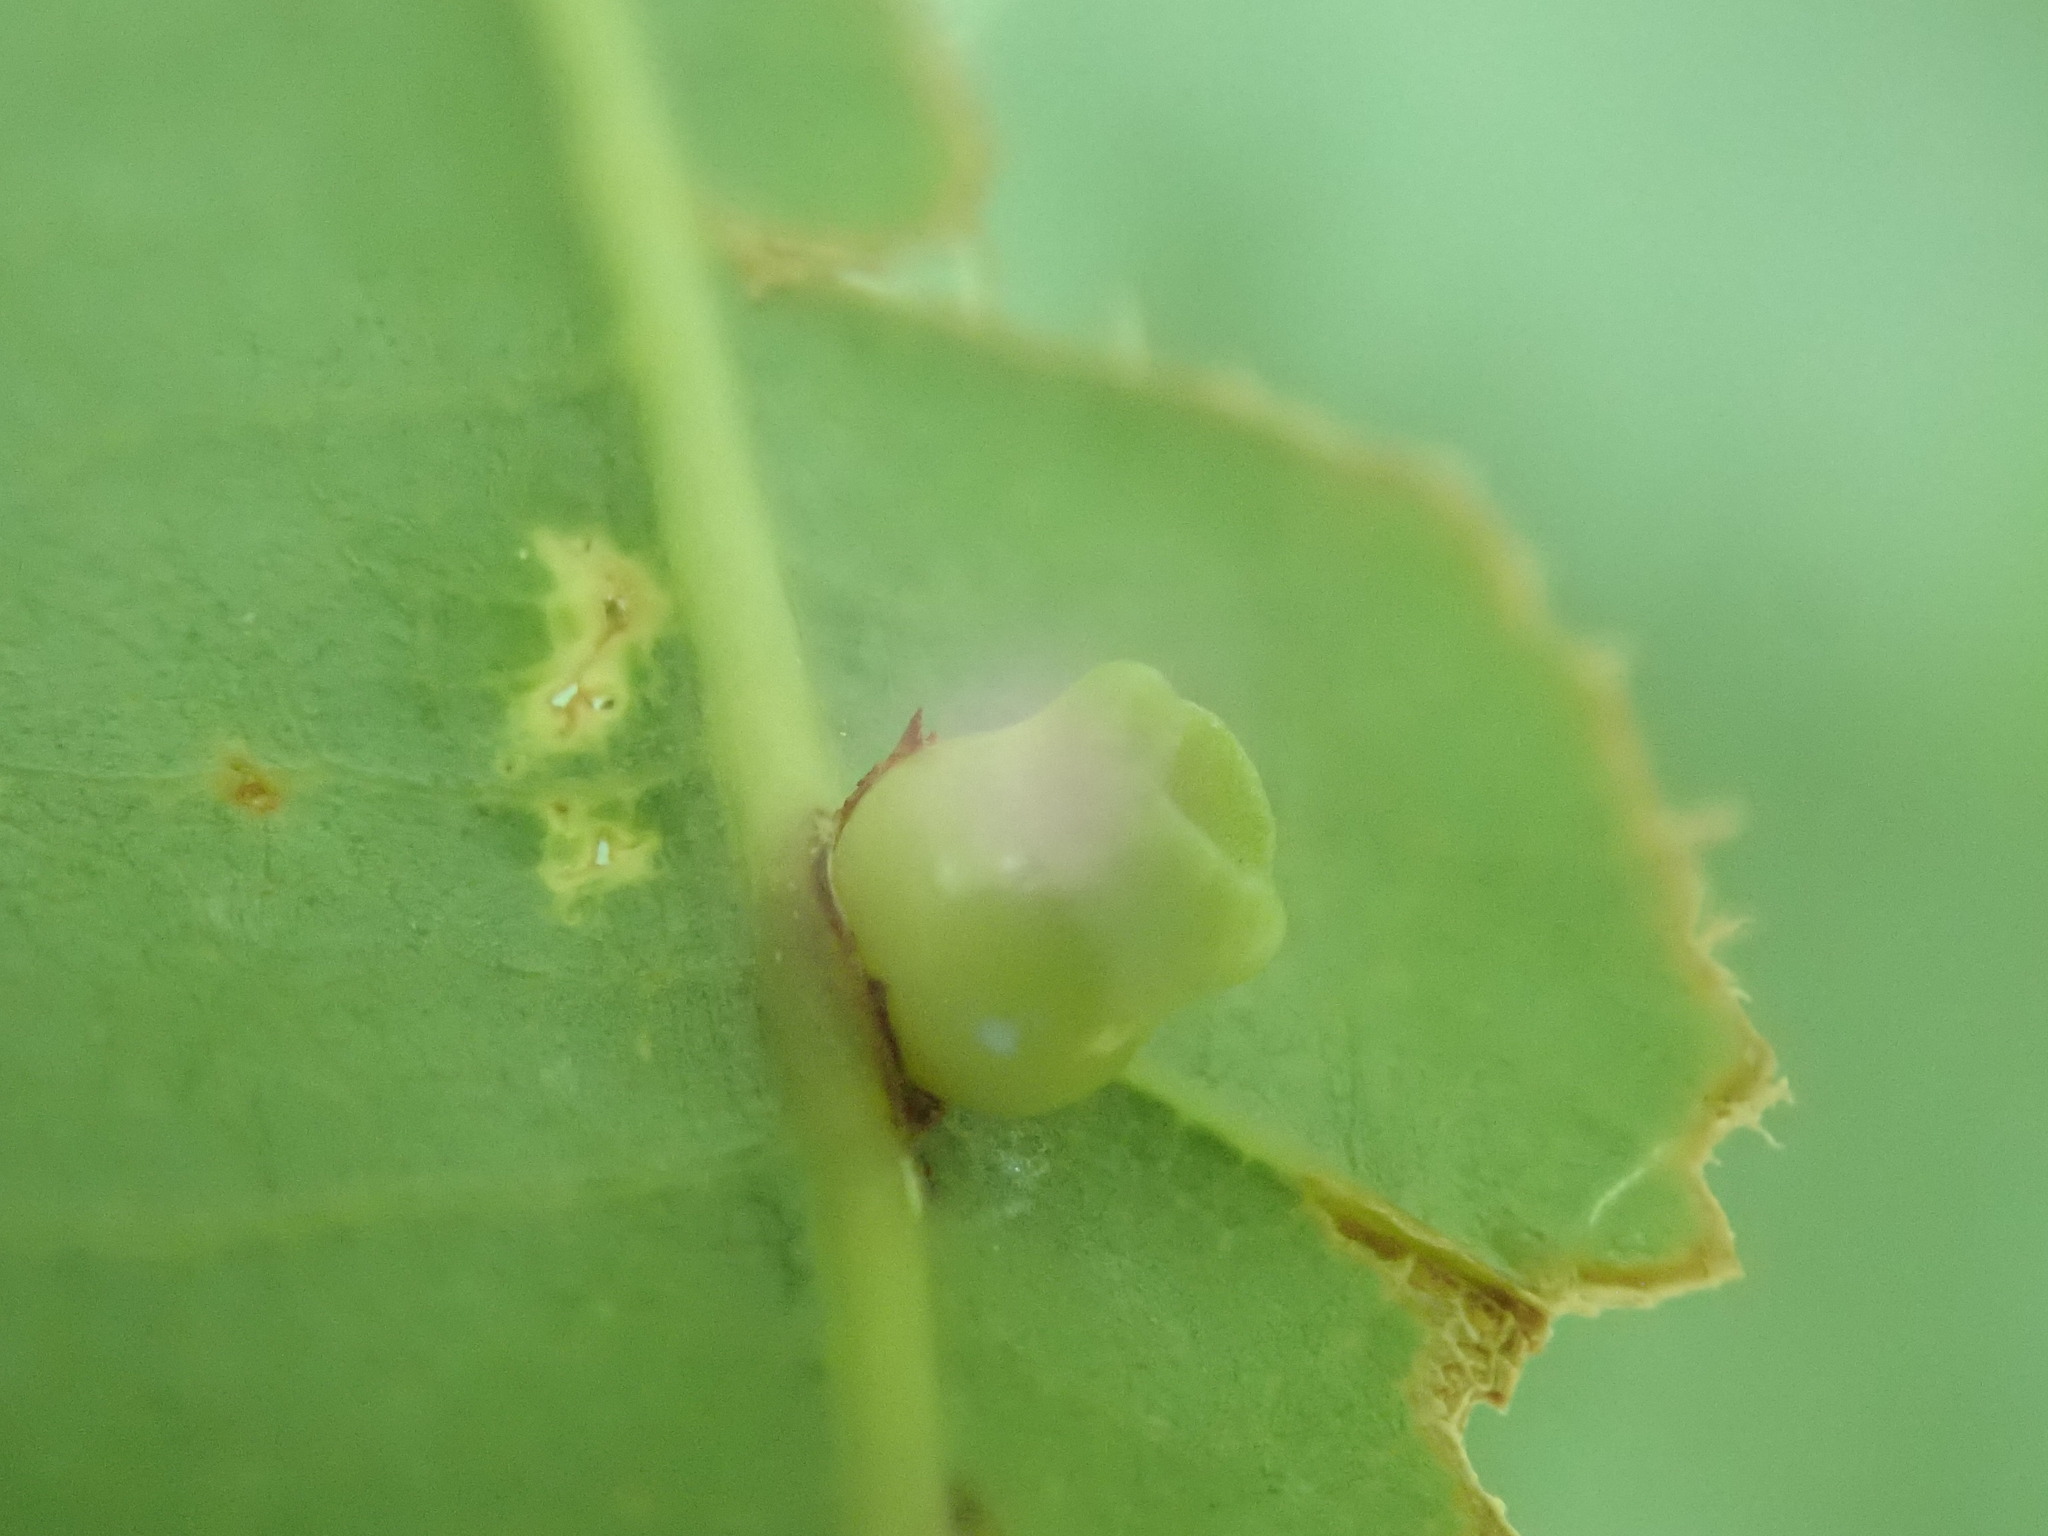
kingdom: Animalia
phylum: Arthropoda
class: Insecta
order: Hymenoptera
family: Cynipidae
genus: Kokkocynips
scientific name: Kokkocynips rileyi
